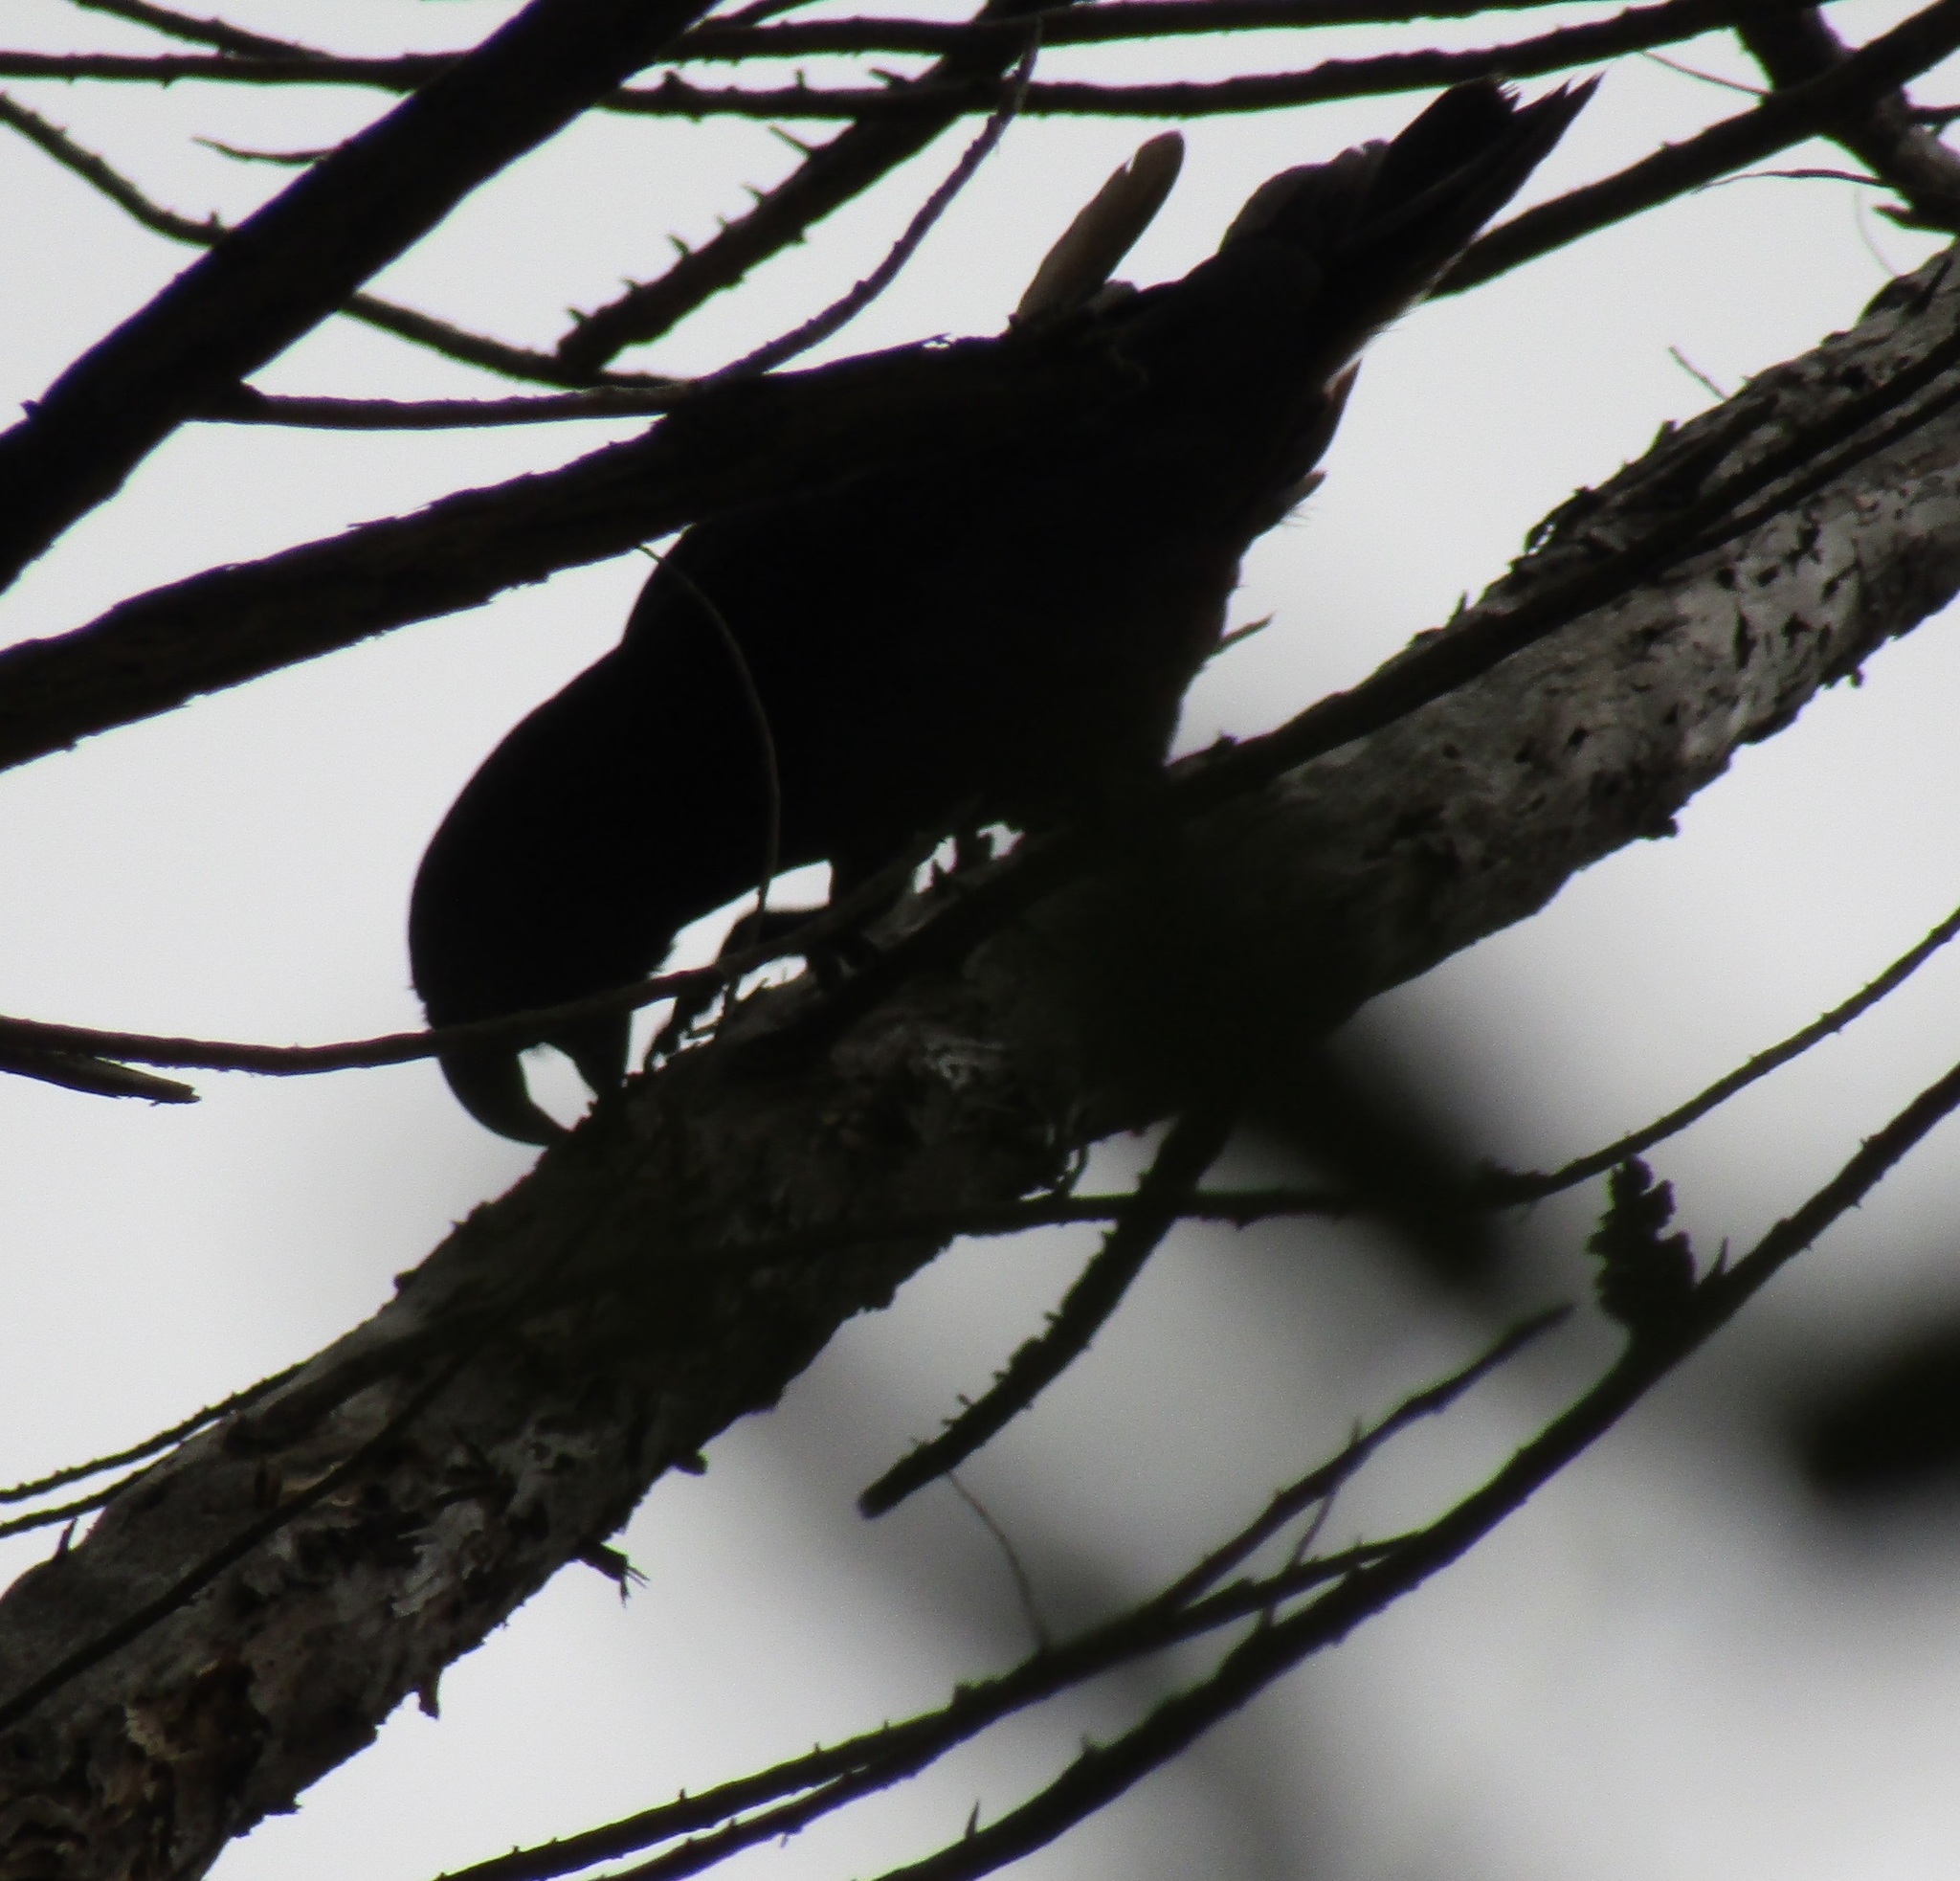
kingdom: Animalia
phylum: Chordata
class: Aves
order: Psittaciformes
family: Psittacidae
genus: Nestor
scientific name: Nestor meridionalis
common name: New zealand kaka
